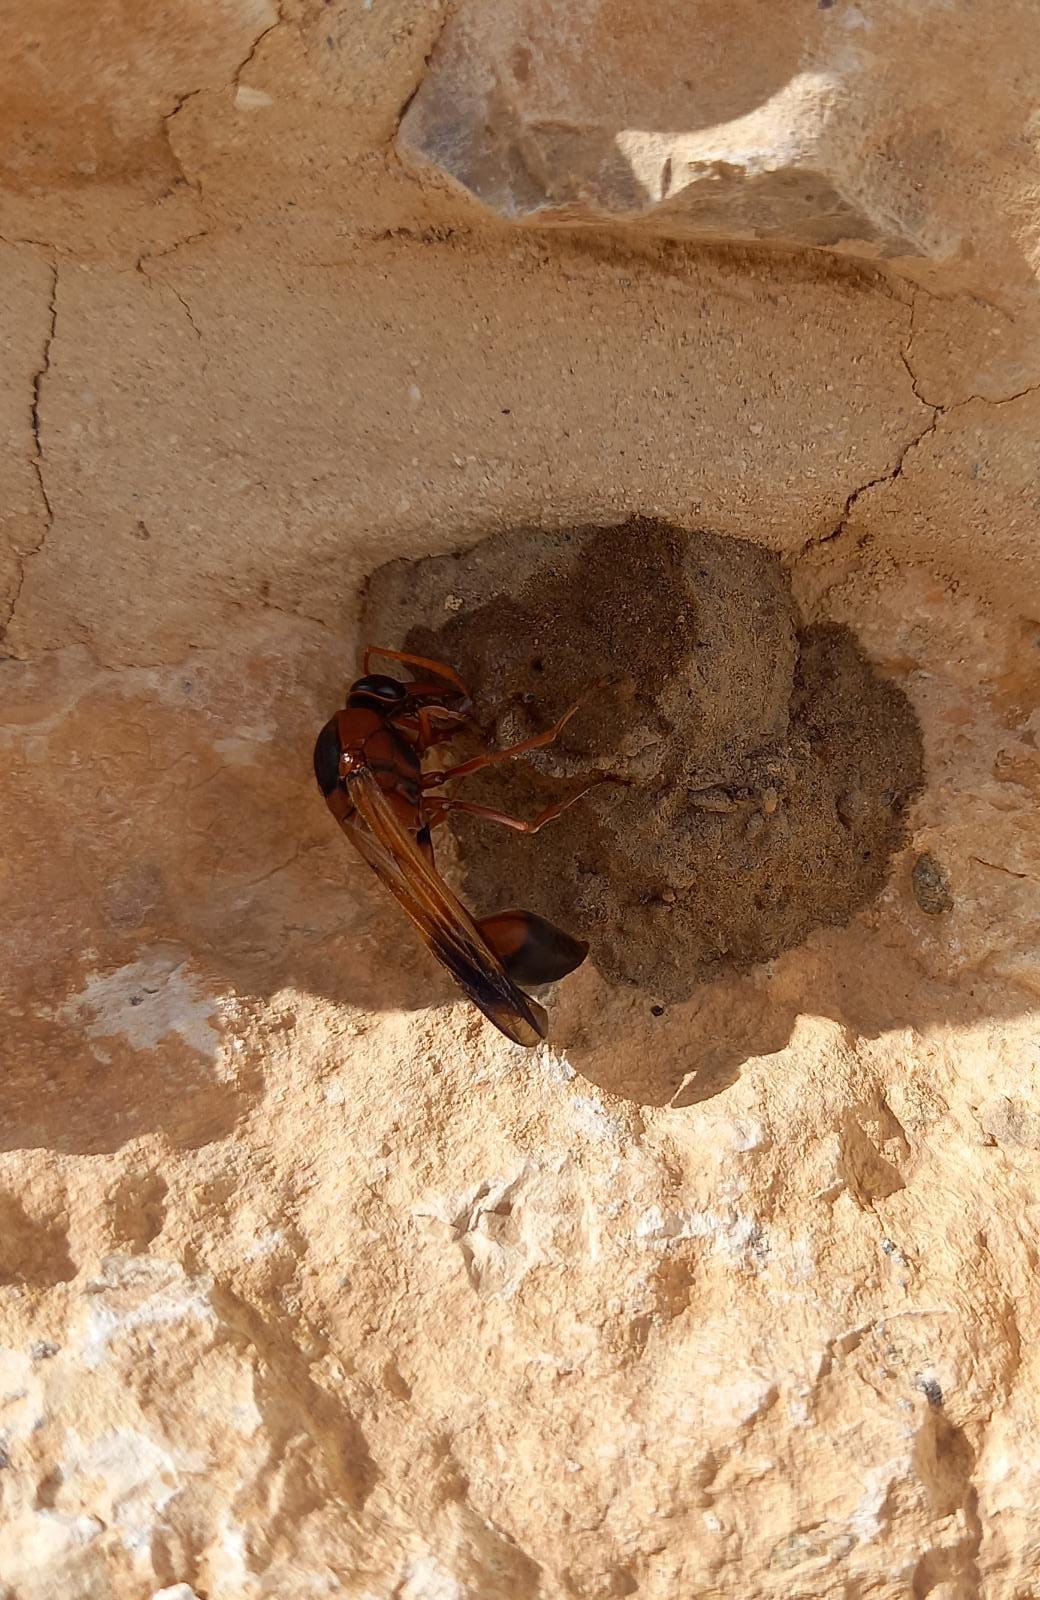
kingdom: Animalia
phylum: Arthropoda
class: Insecta
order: Hymenoptera
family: Eumenidae
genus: Delta
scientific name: Delta dimidiatipenne
